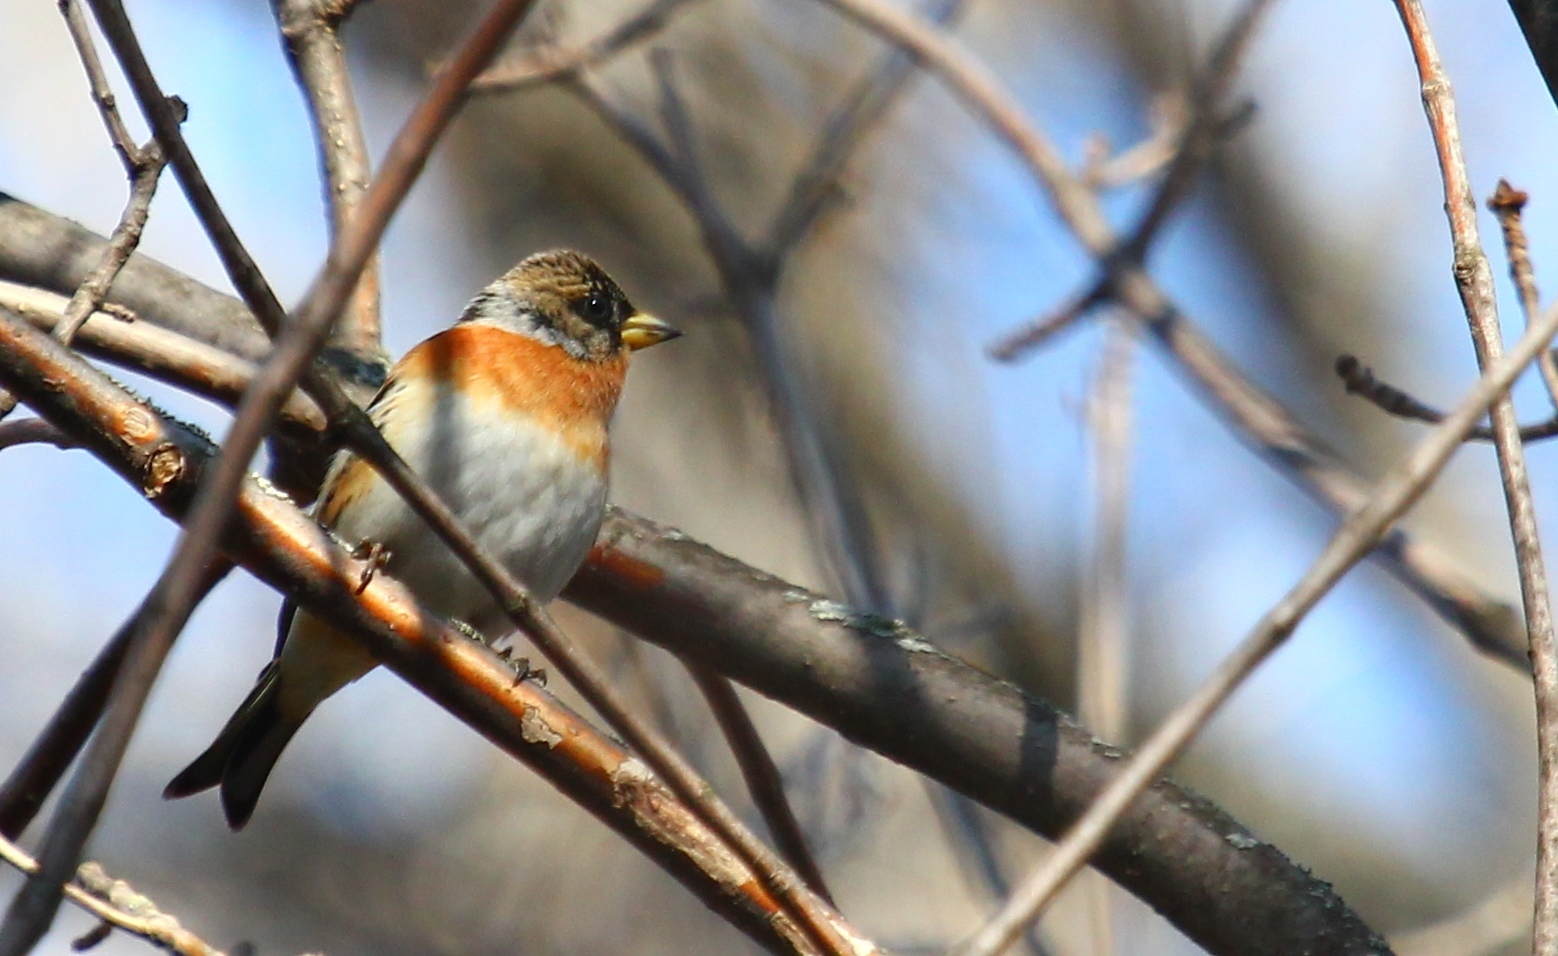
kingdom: Animalia
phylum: Chordata
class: Aves
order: Passeriformes
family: Fringillidae
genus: Fringilla
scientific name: Fringilla montifringilla
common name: Brambling
